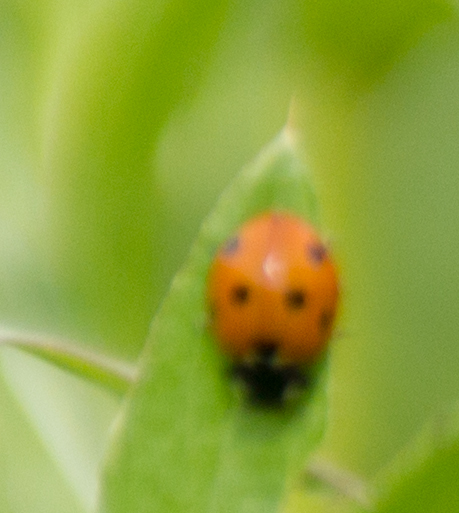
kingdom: Animalia
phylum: Arthropoda
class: Insecta
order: Coleoptera
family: Coccinellidae
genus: Coccinella
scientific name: Coccinella septempunctata
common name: Sevenspotted lady beetle
